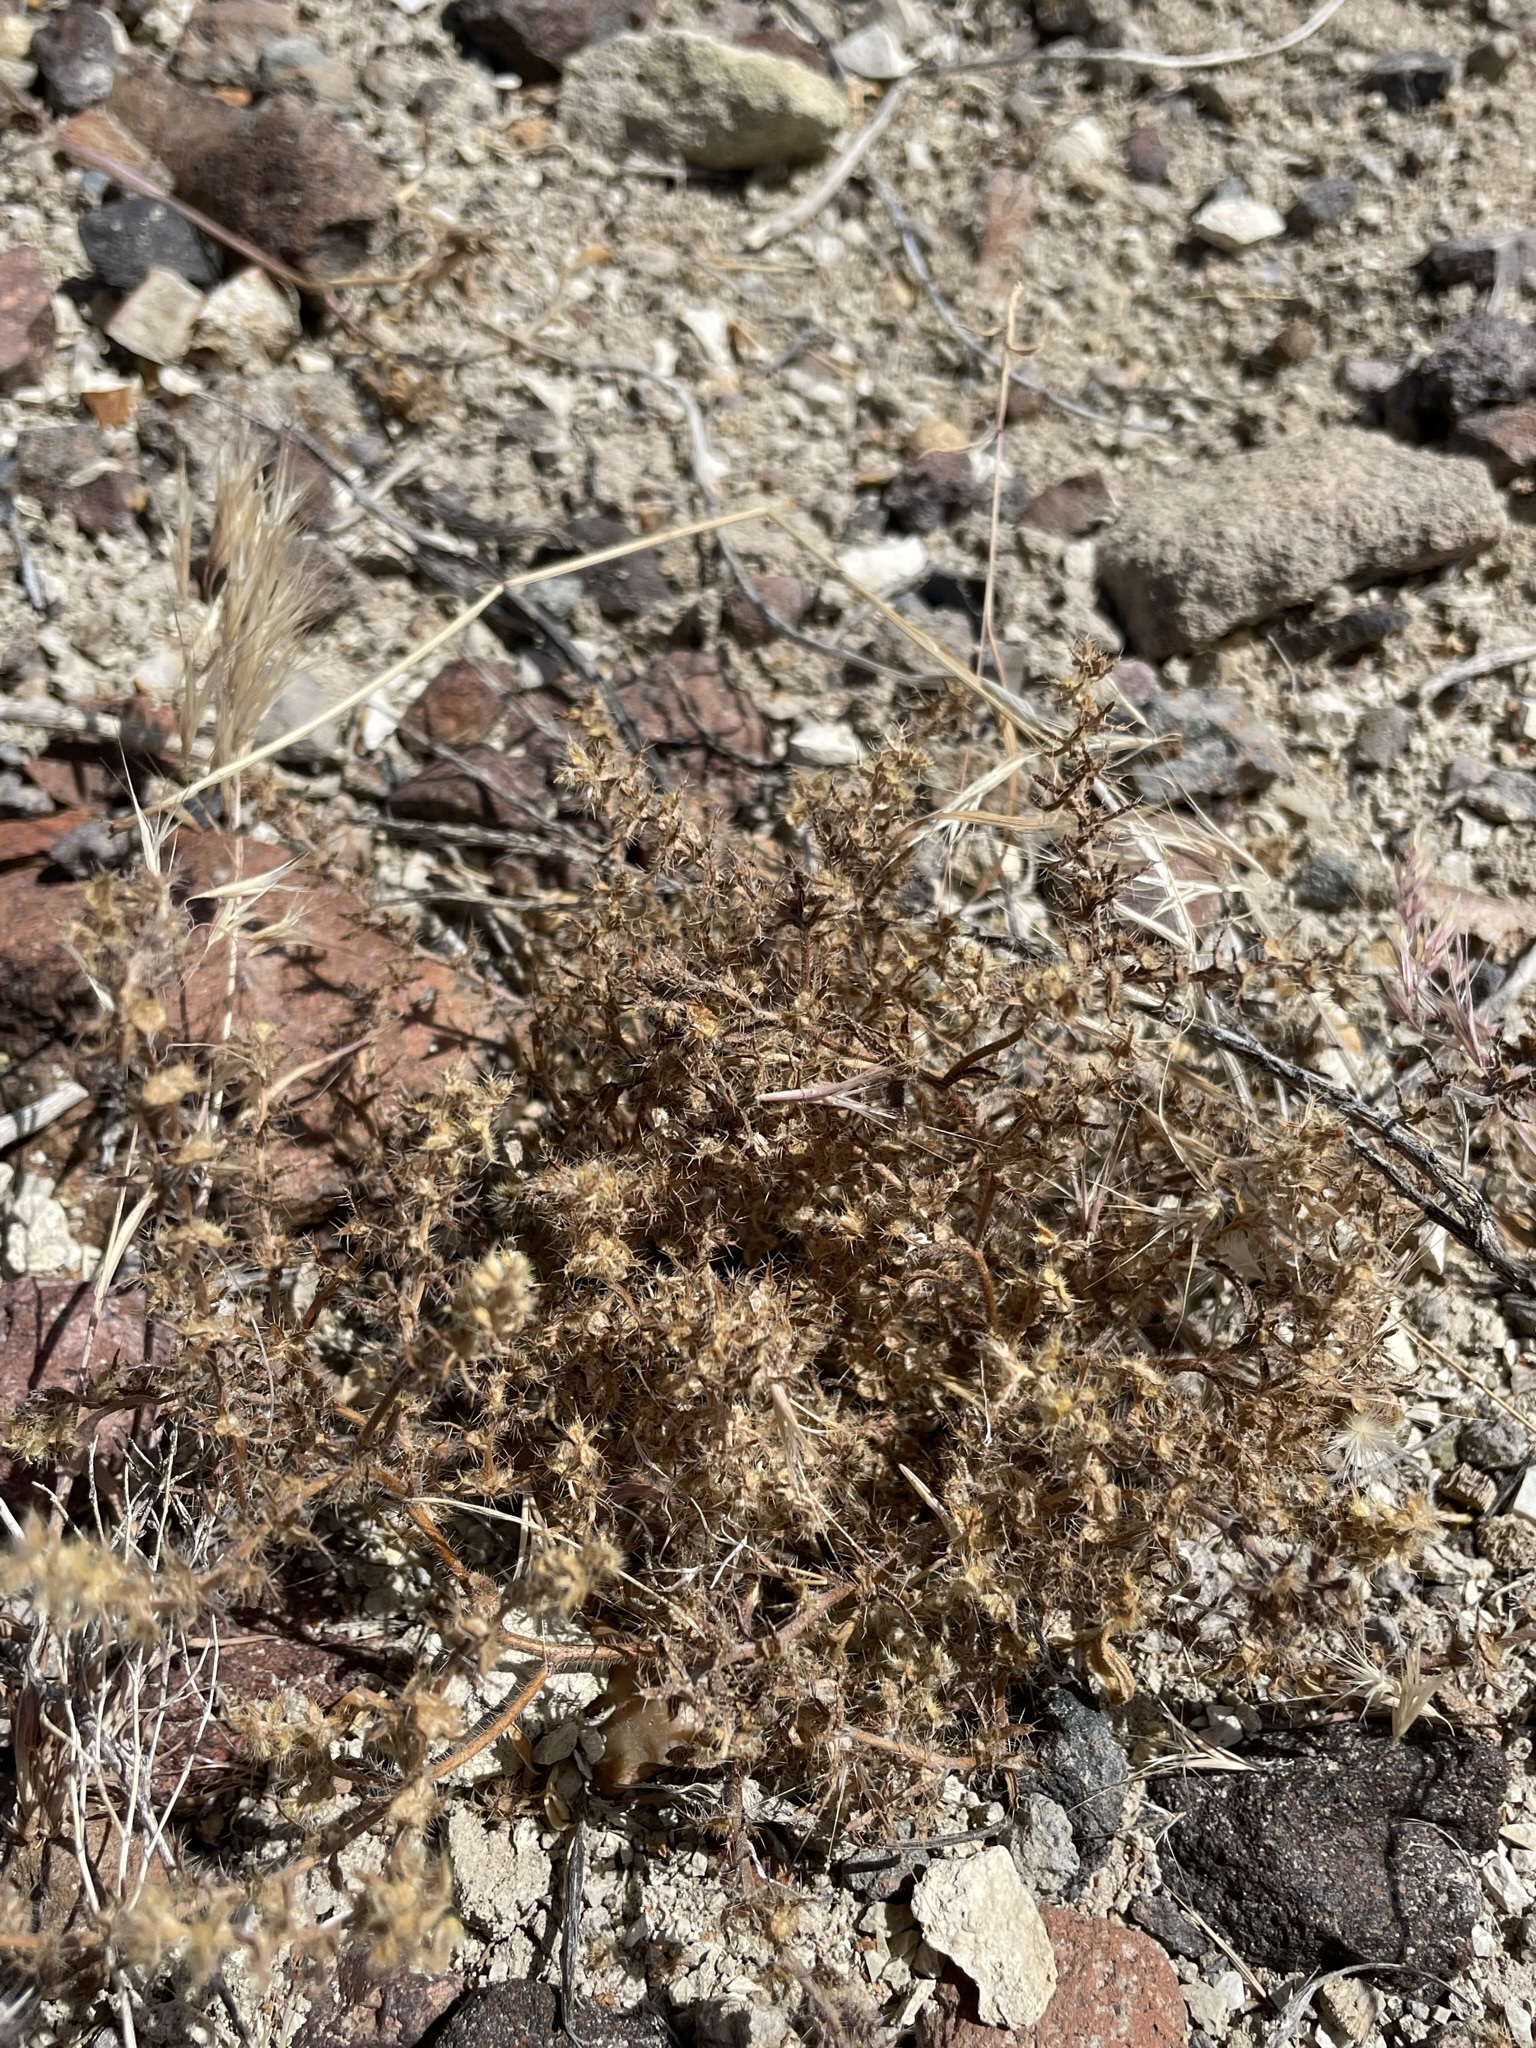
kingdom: Plantae
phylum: Tracheophyta
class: Magnoliopsida
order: Boraginales
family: Boraginaceae
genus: Pectocarya
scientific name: Pectocarya setosa
